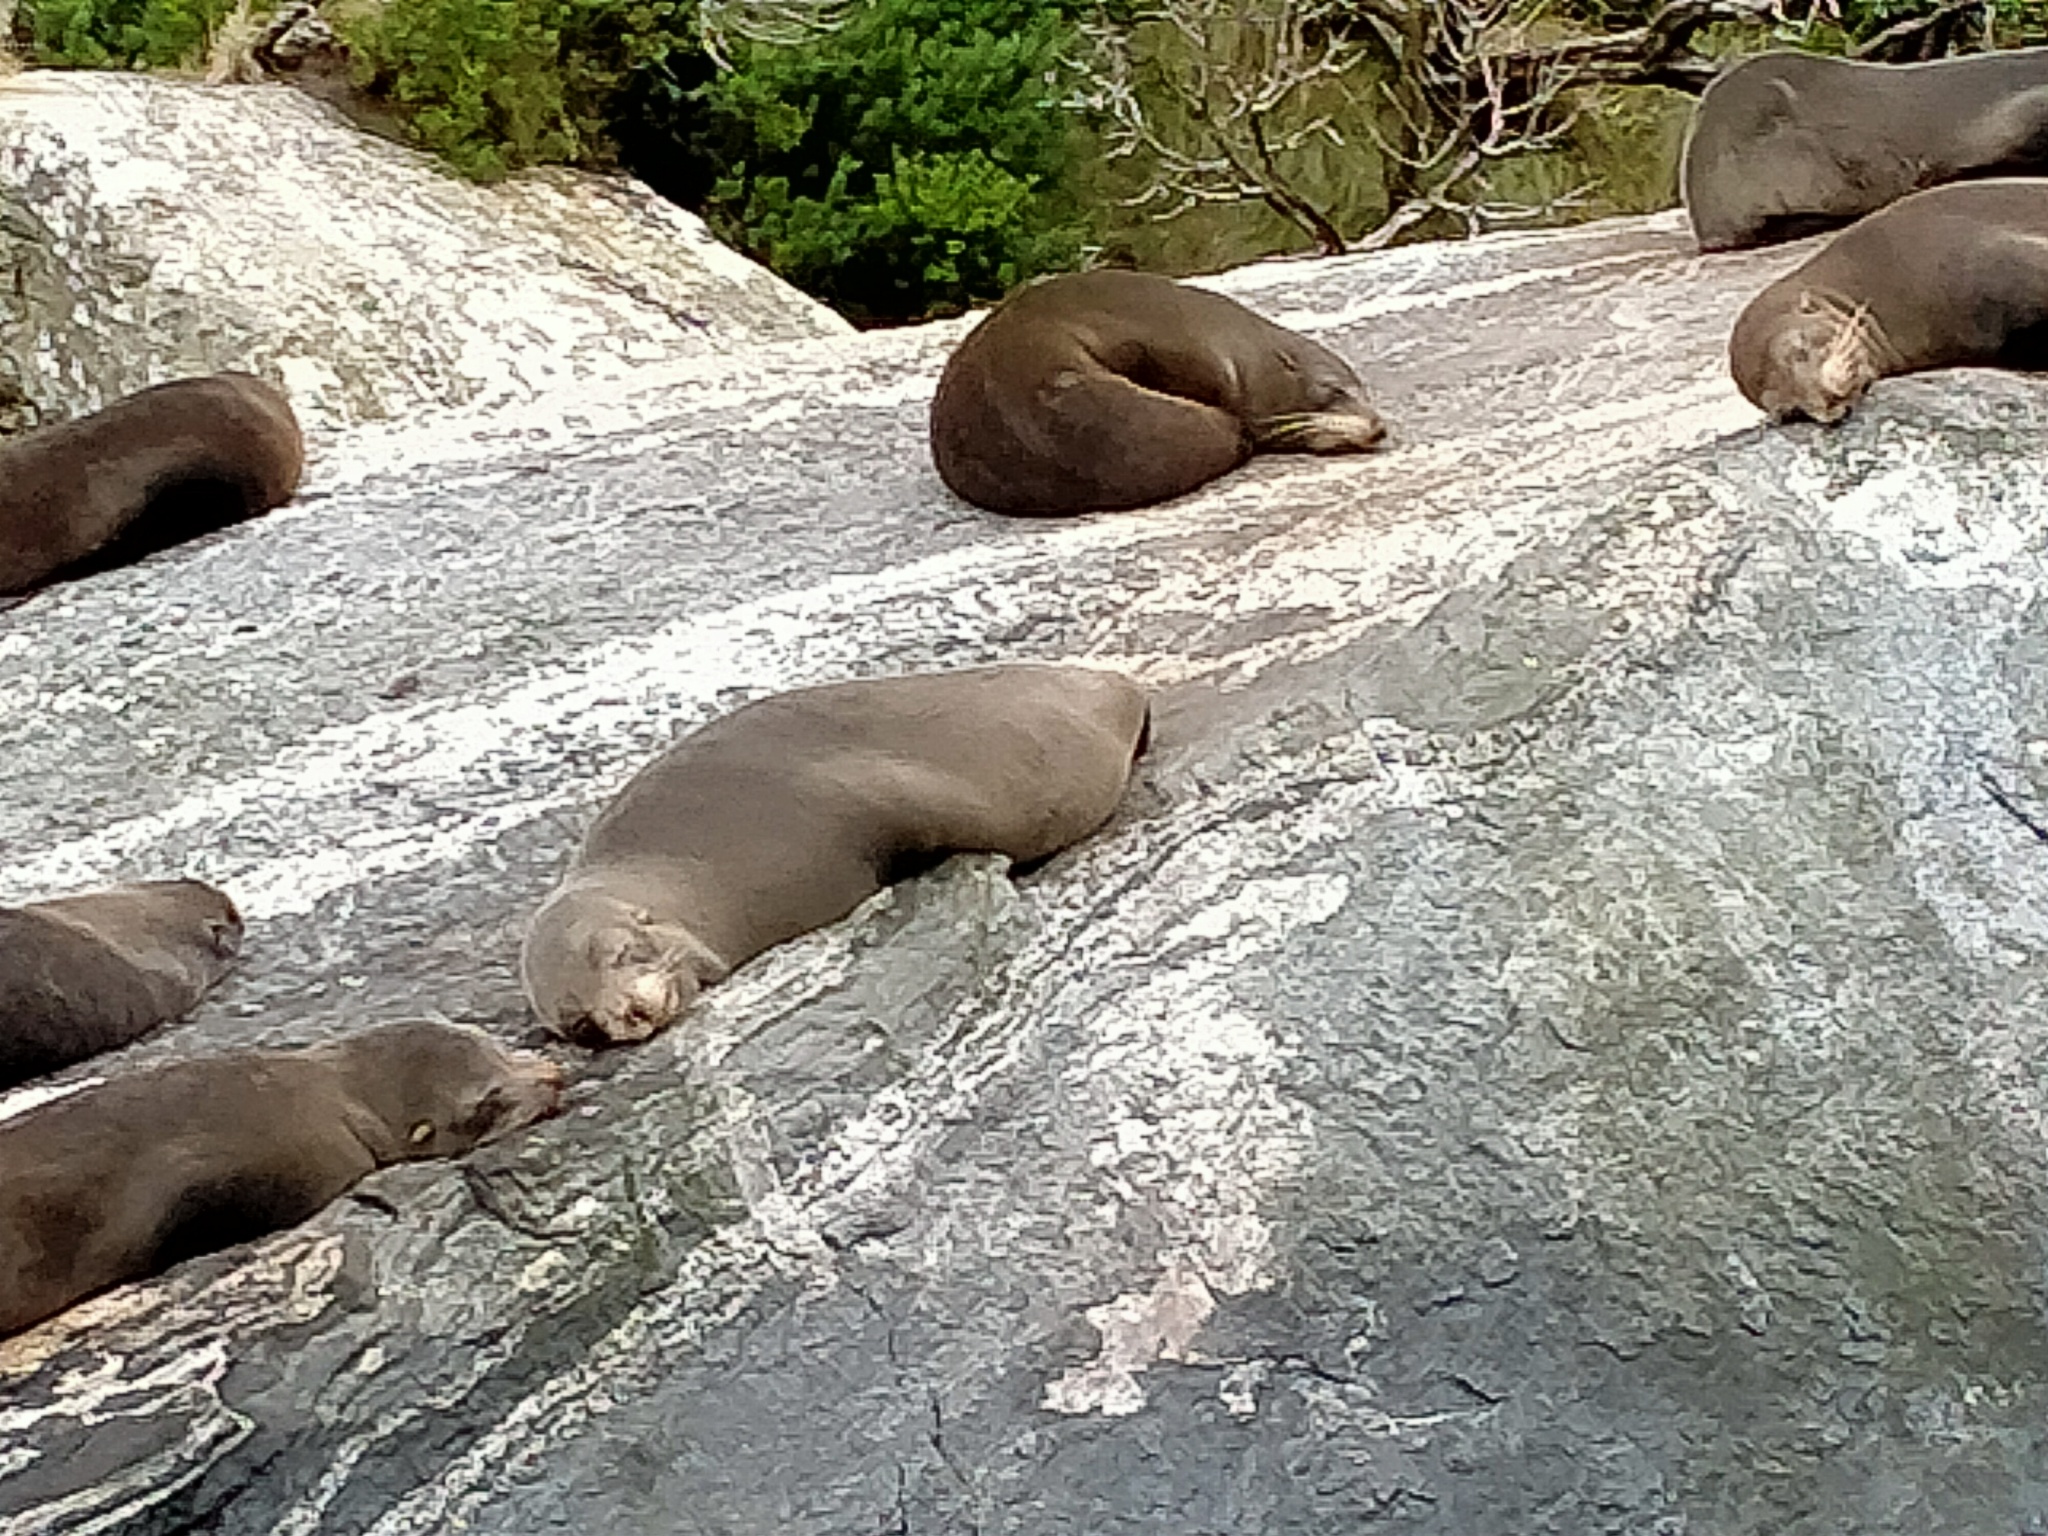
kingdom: Animalia
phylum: Chordata
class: Mammalia
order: Carnivora
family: Otariidae
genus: Arctocephalus
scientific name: Arctocephalus forsteri
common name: New zealand fur seal
